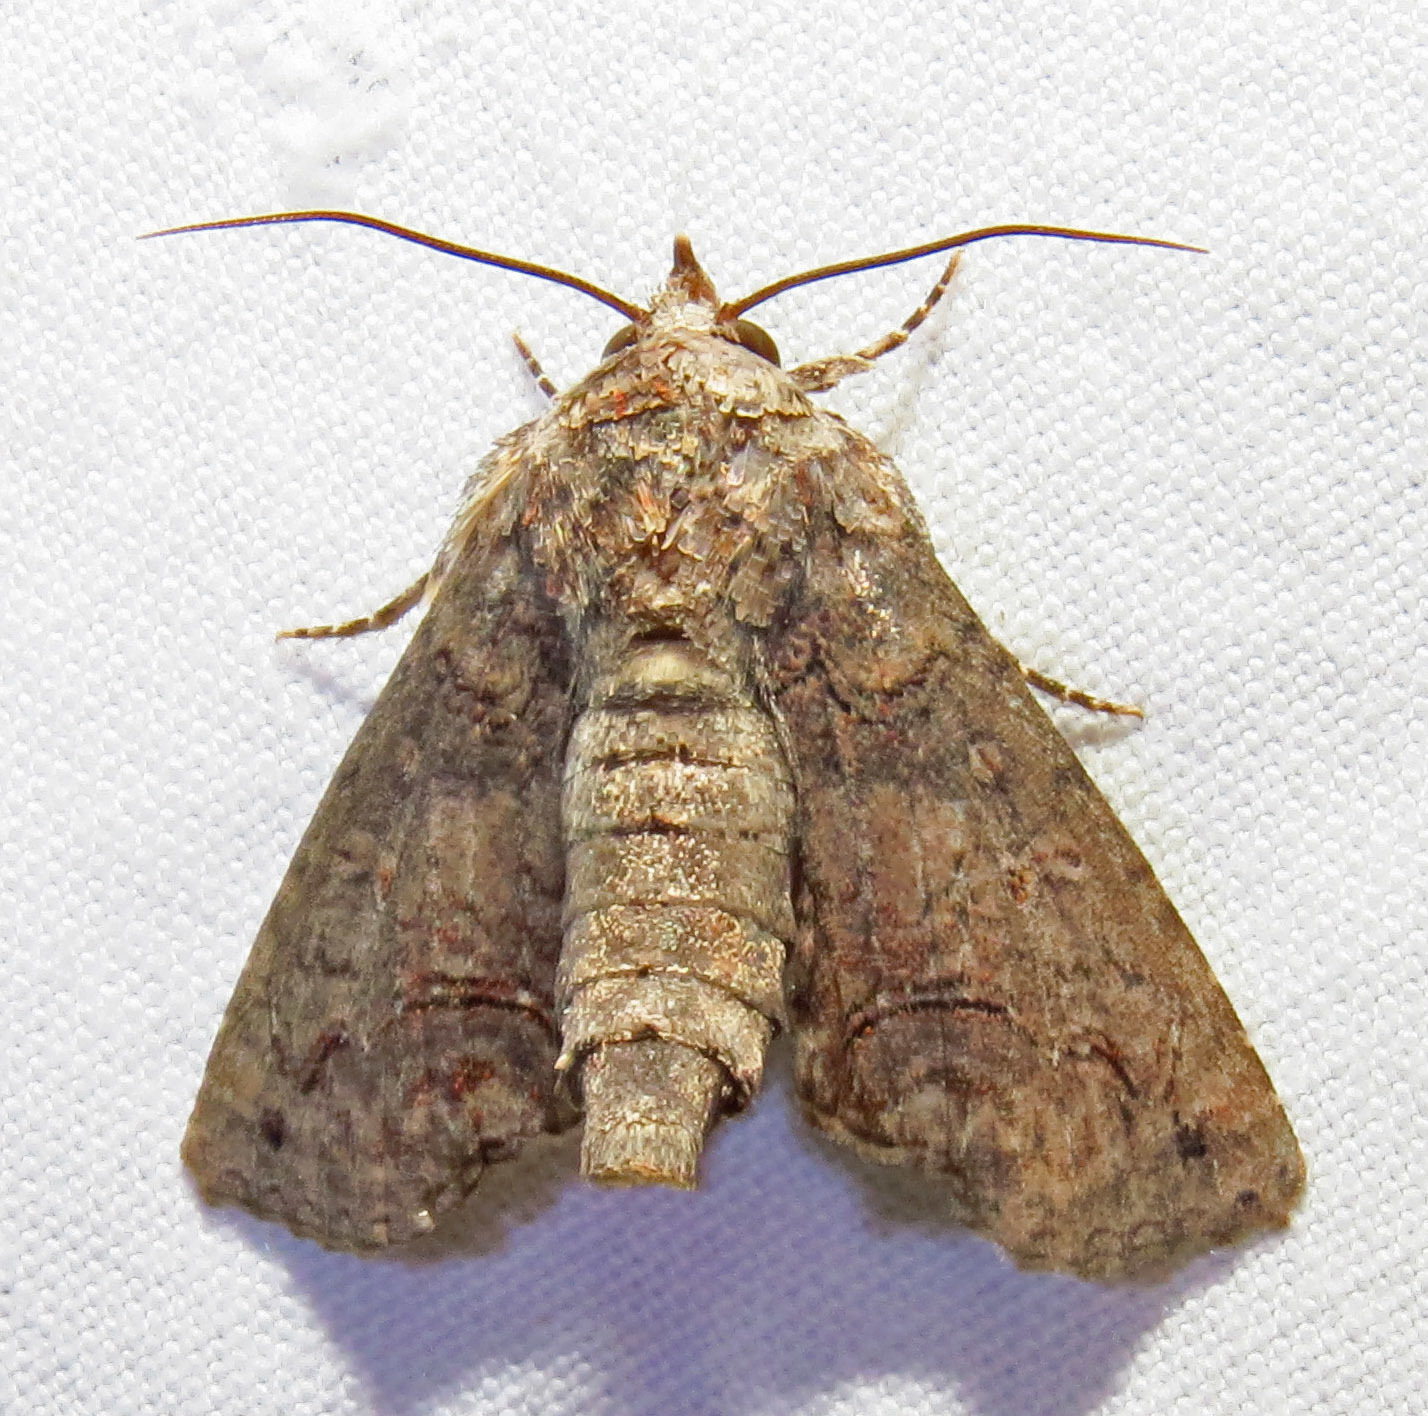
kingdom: Animalia
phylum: Arthropoda
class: Insecta
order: Lepidoptera
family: Euteliidae
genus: Paectes
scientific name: Paectes abrostoloides
